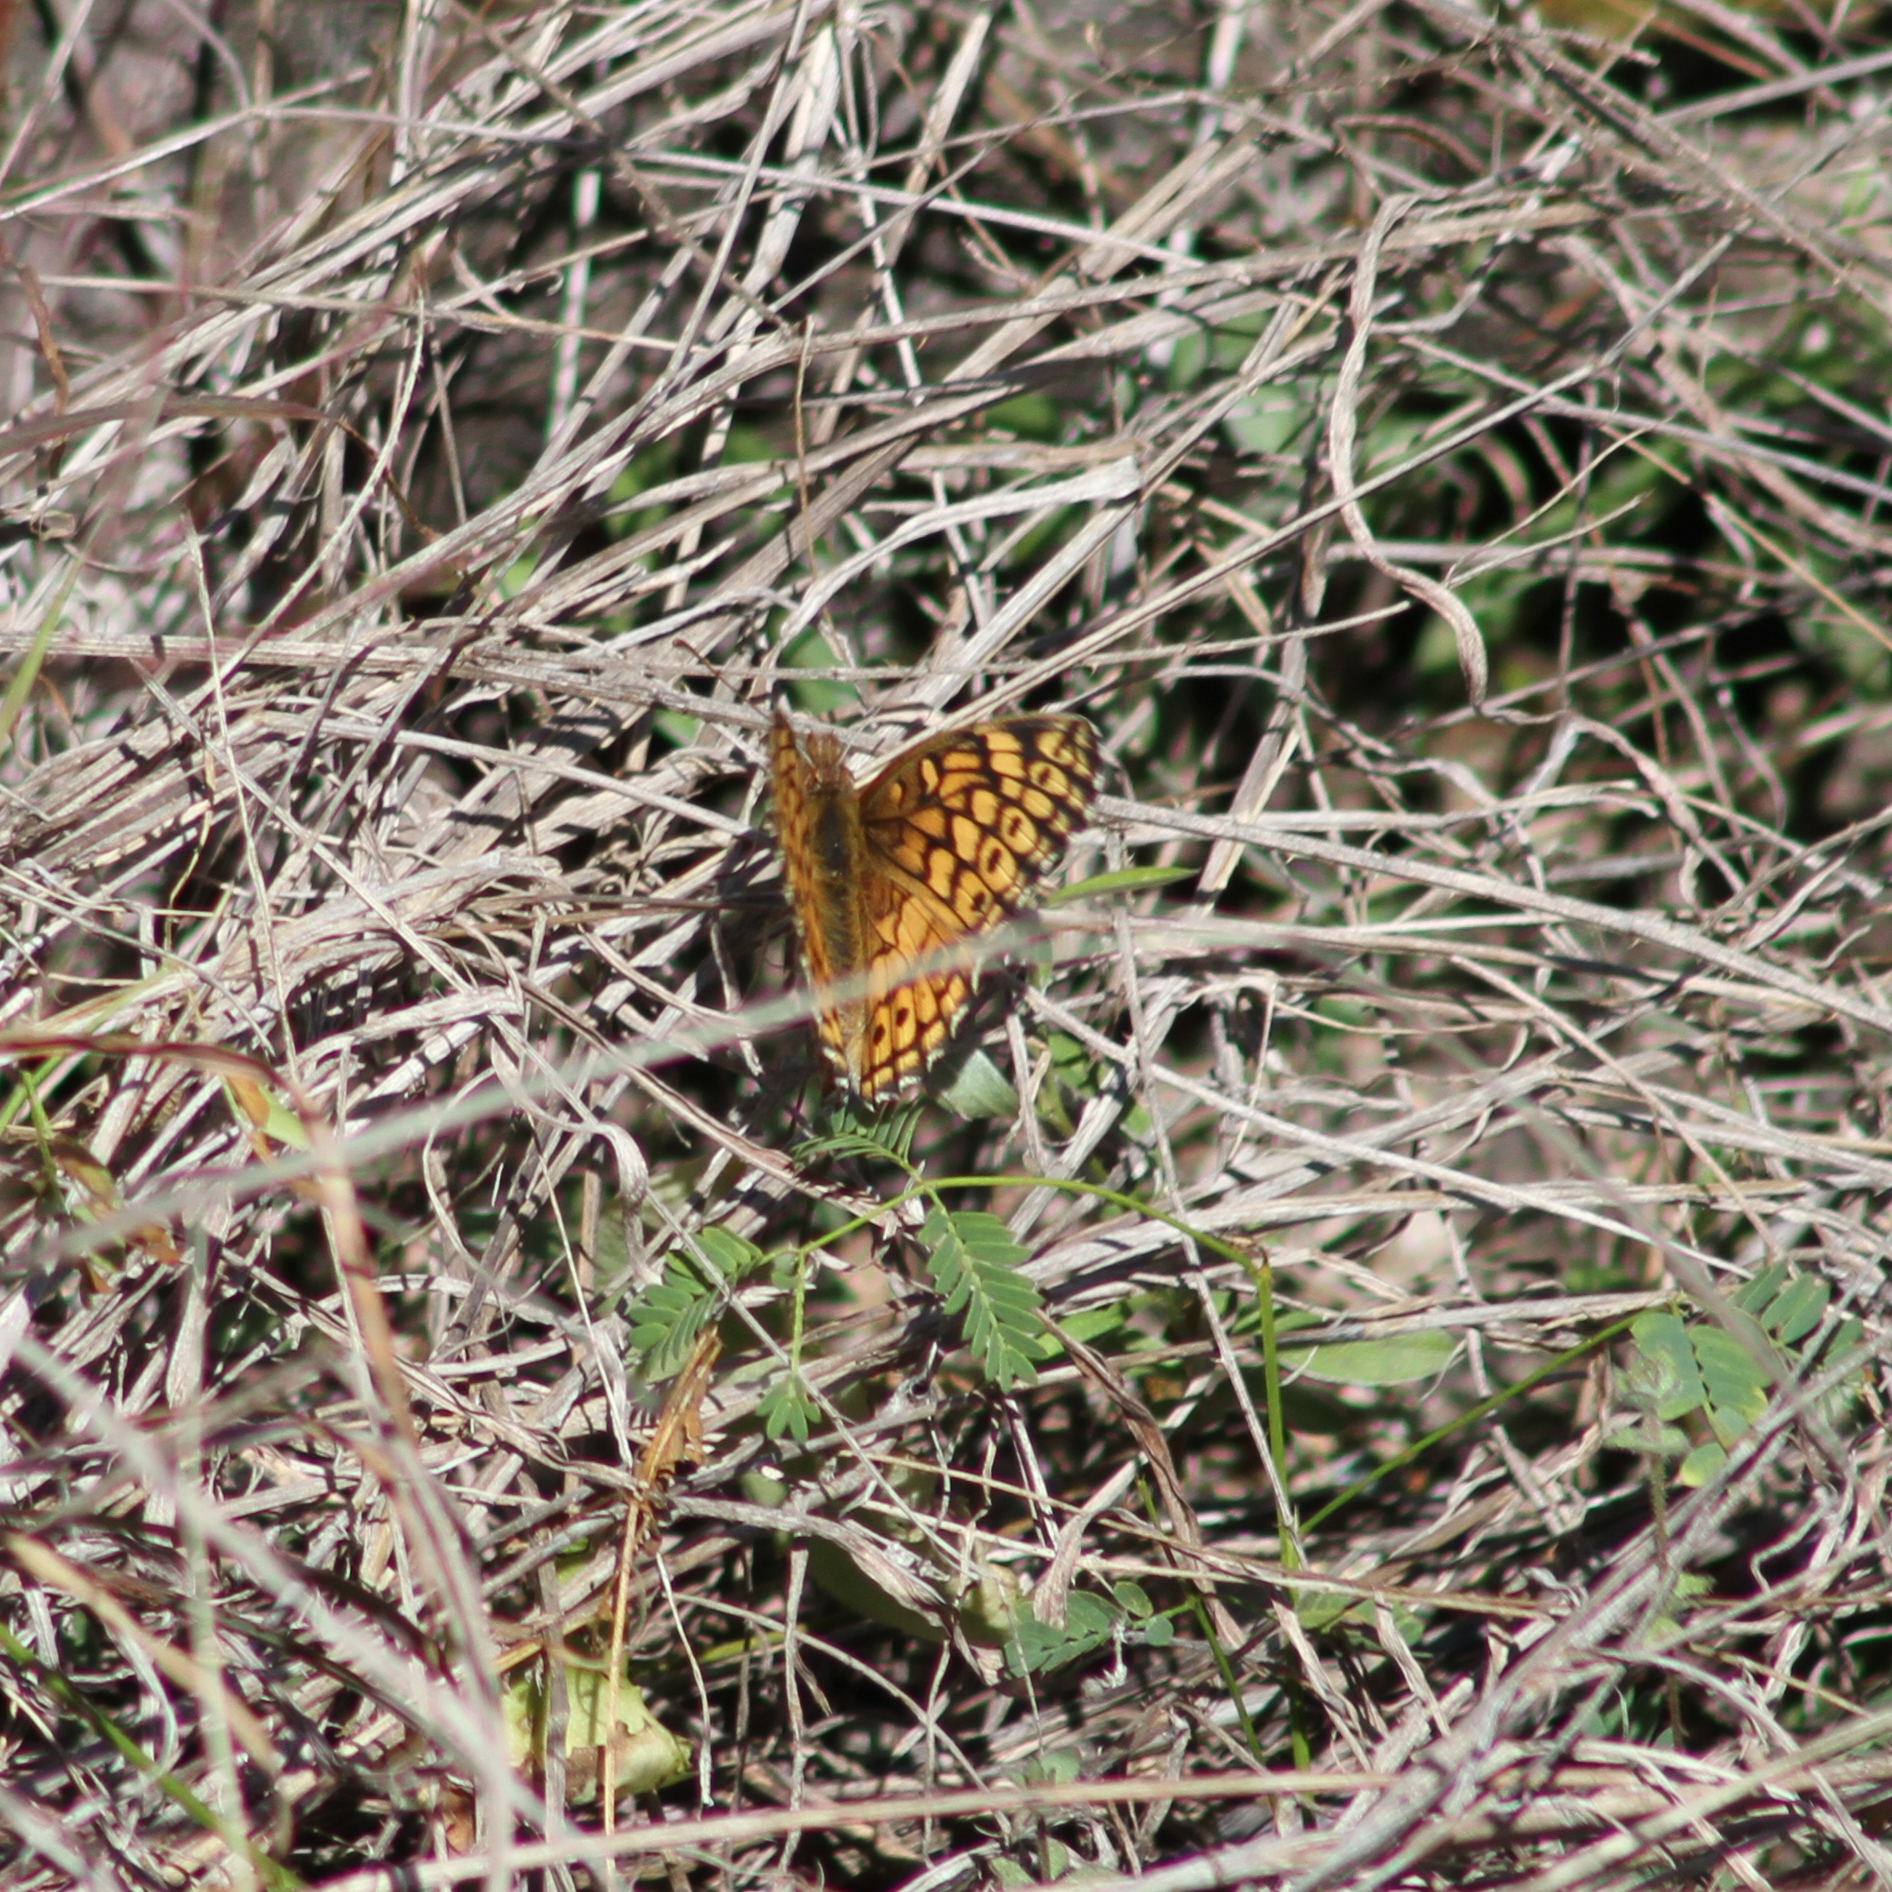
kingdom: Animalia
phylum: Arthropoda
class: Insecta
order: Lepidoptera
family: Nymphalidae
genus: Euptoieta
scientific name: Euptoieta claudia
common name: Variegated fritillary
